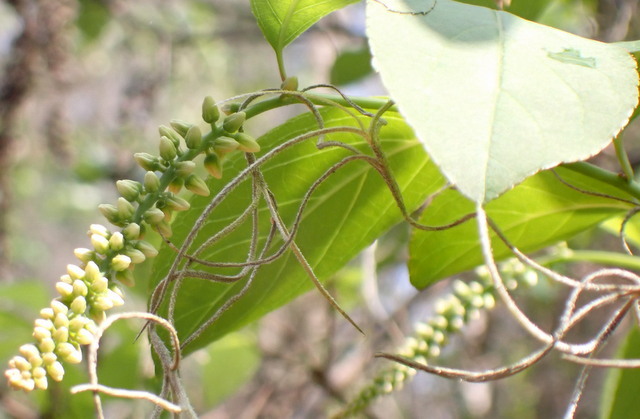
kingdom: Plantae
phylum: Tracheophyta
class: Magnoliopsida
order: Saxifragales
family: Iteaceae
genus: Itea
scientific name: Itea virginica
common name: Sweetspire
